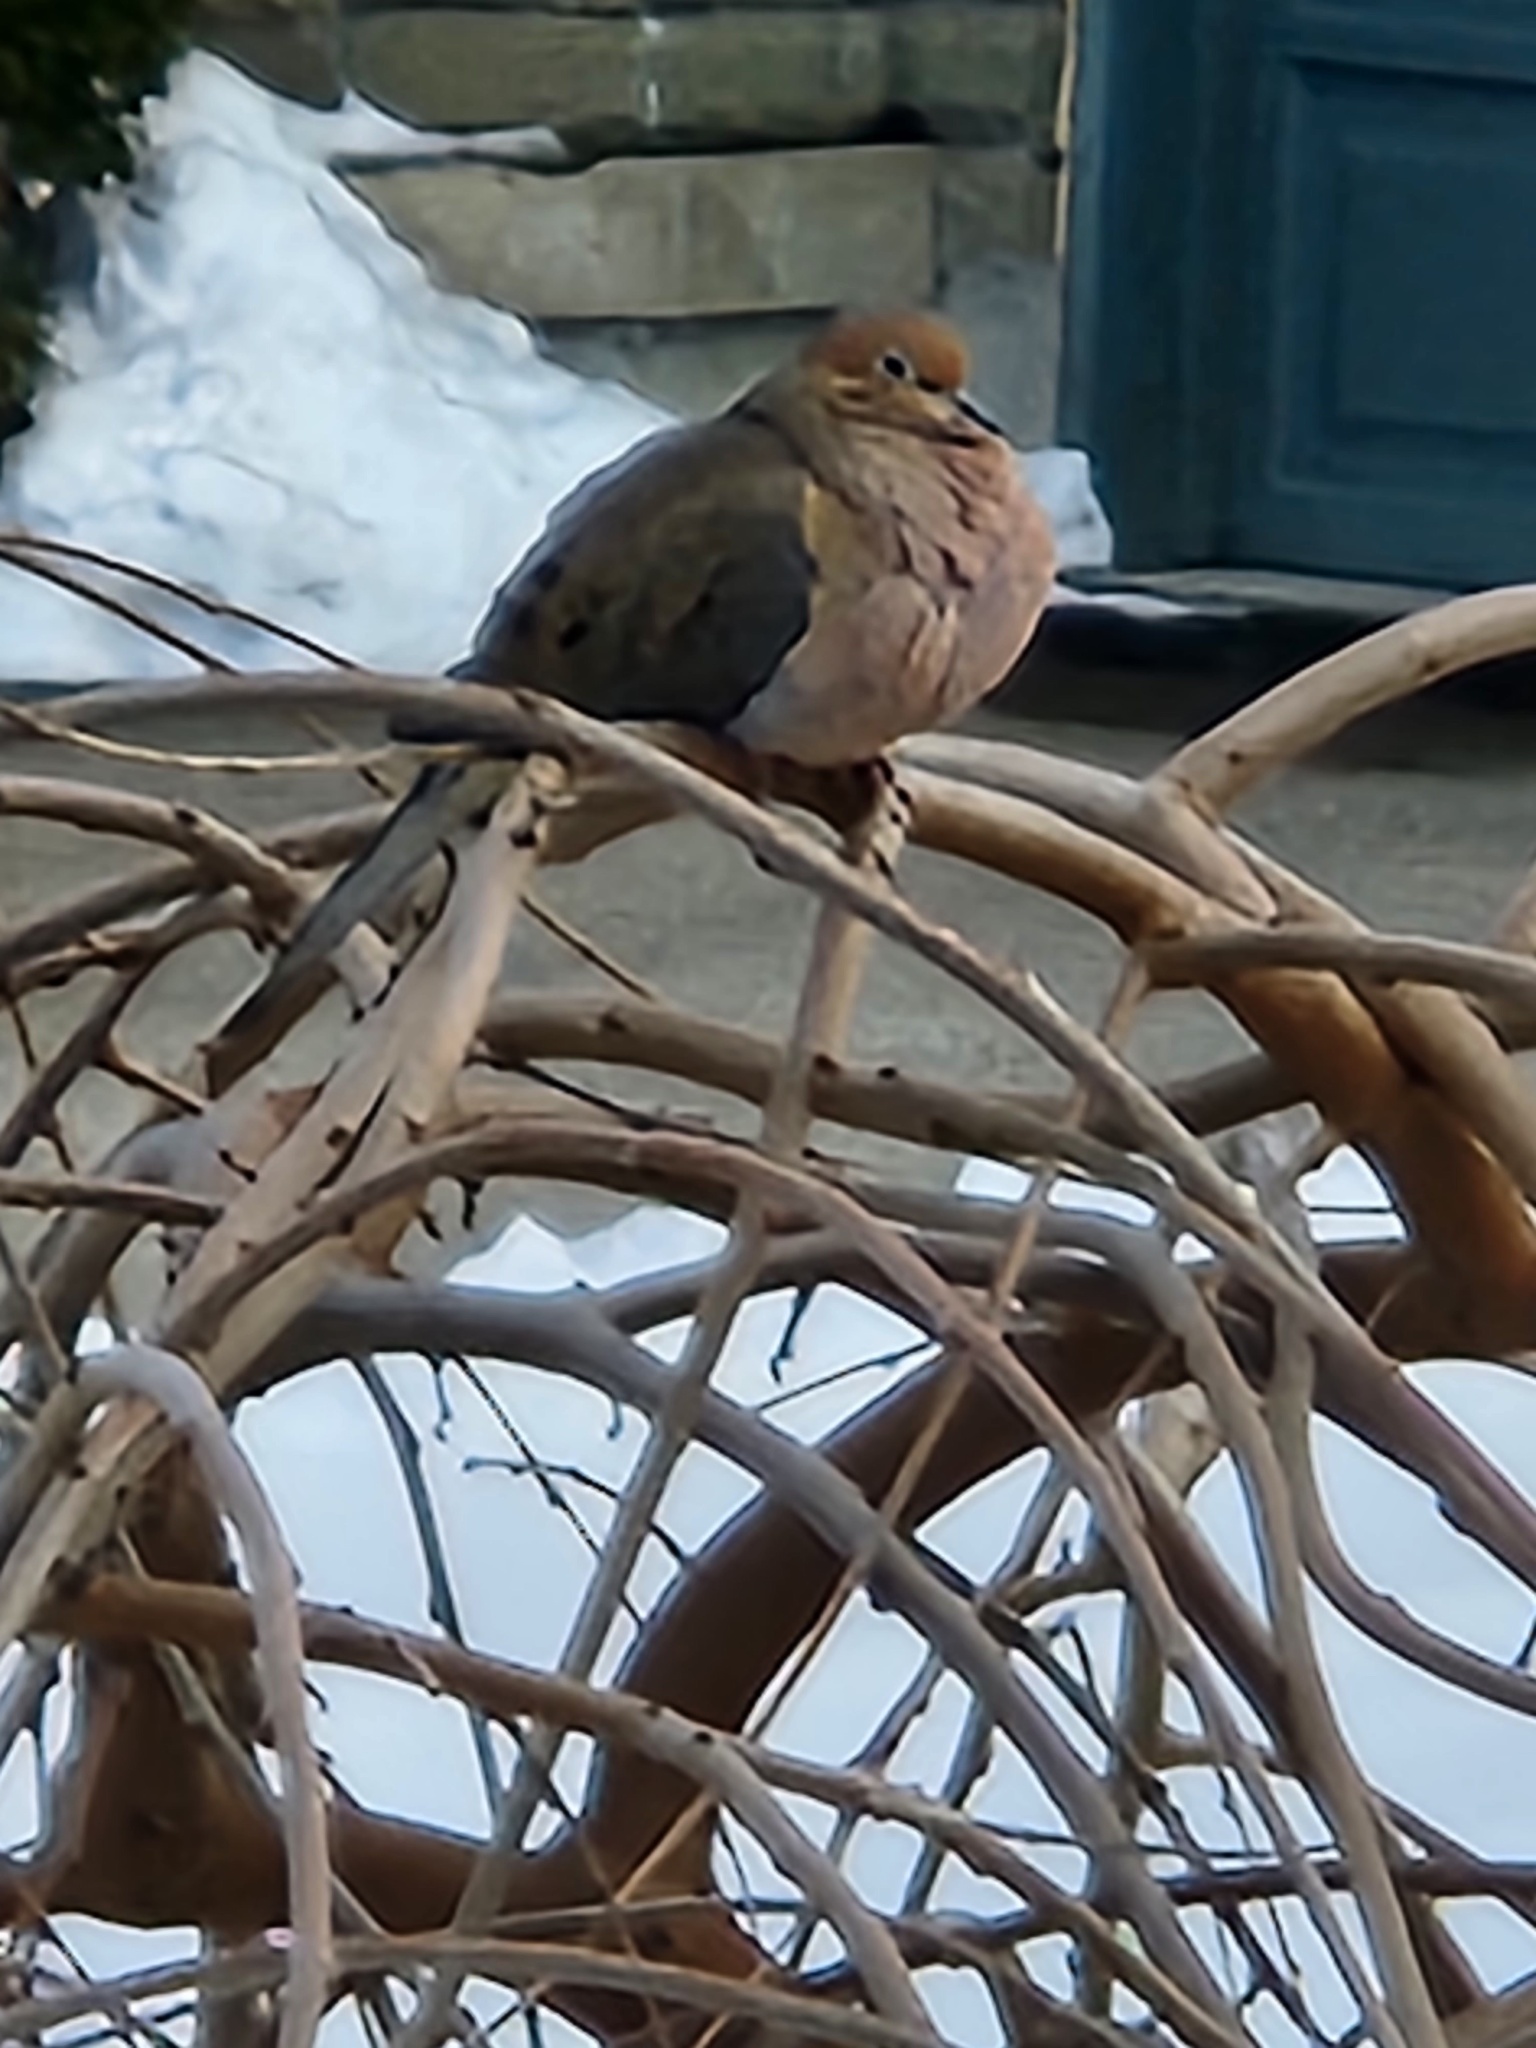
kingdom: Animalia
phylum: Chordata
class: Aves
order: Columbiformes
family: Columbidae
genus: Zenaida
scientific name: Zenaida macroura
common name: Mourning dove
